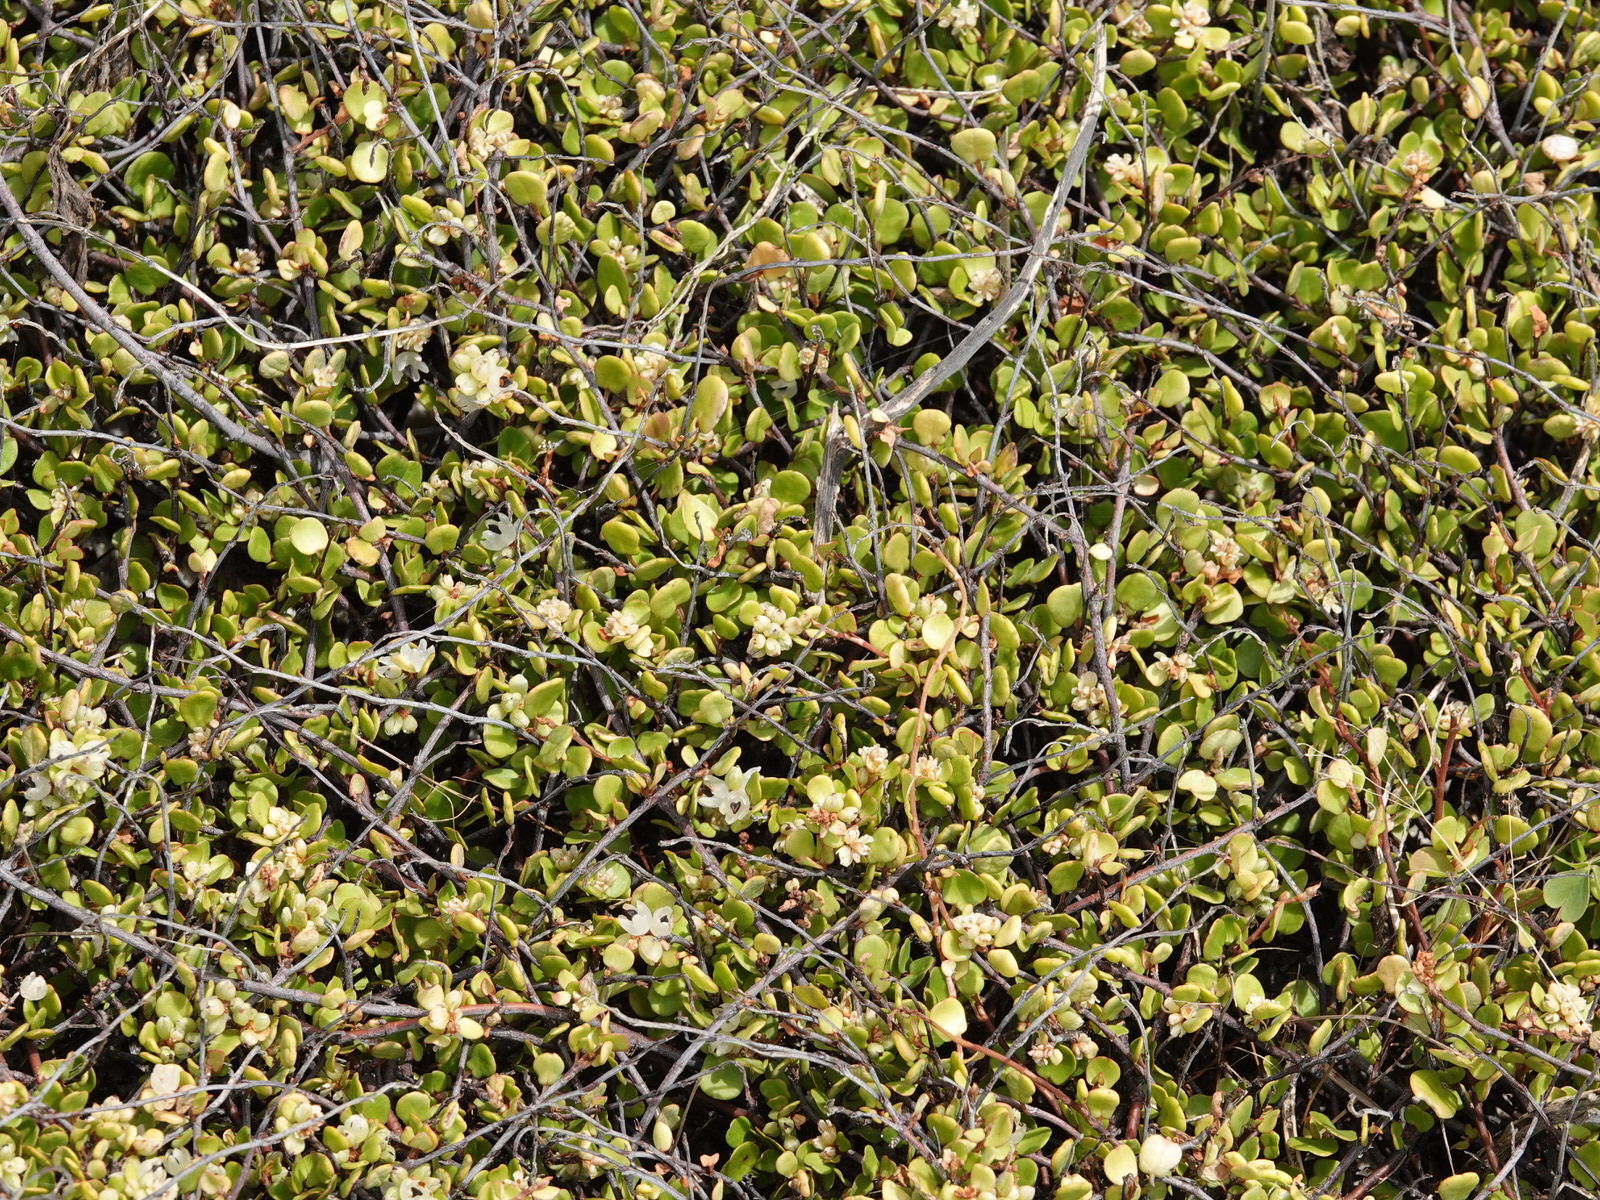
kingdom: Plantae
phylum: Tracheophyta
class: Magnoliopsida
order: Caryophyllales
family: Polygonaceae
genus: Muehlenbeckia
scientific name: Muehlenbeckia complexa
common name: Wireplant
